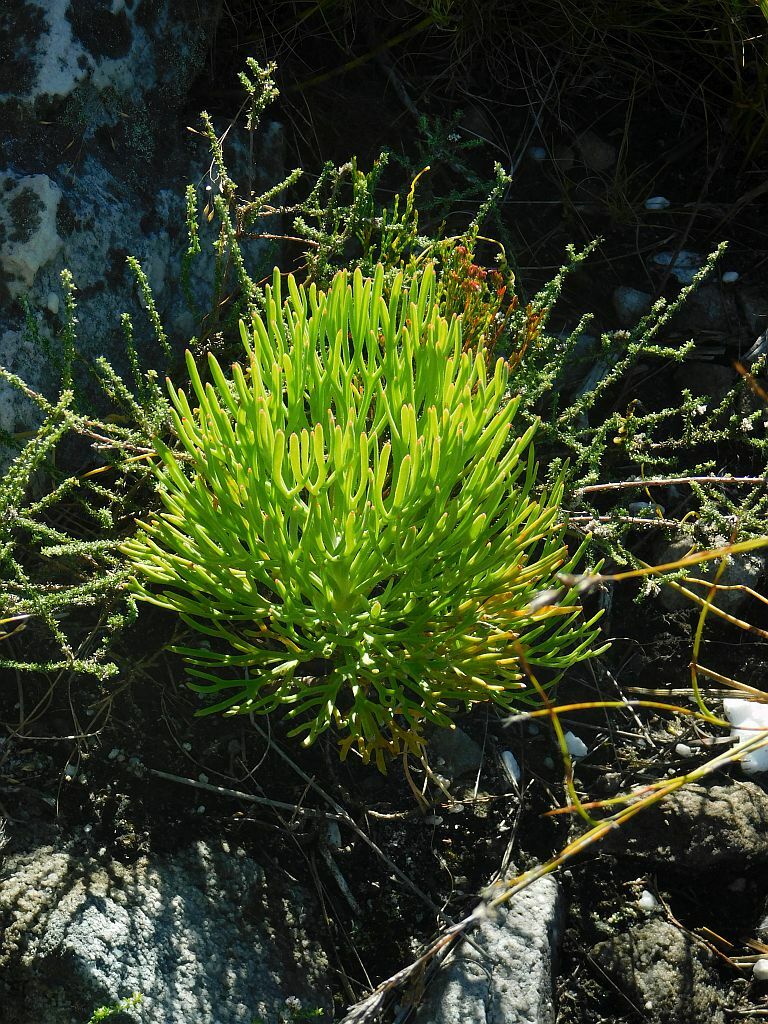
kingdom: Plantae
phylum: Tracheophyta
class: Magnoliopsida
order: Proteales
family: Proteaceae
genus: Paranomus
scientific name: Paranomus sceptrum-gustavianus
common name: King gustav's sceptre
